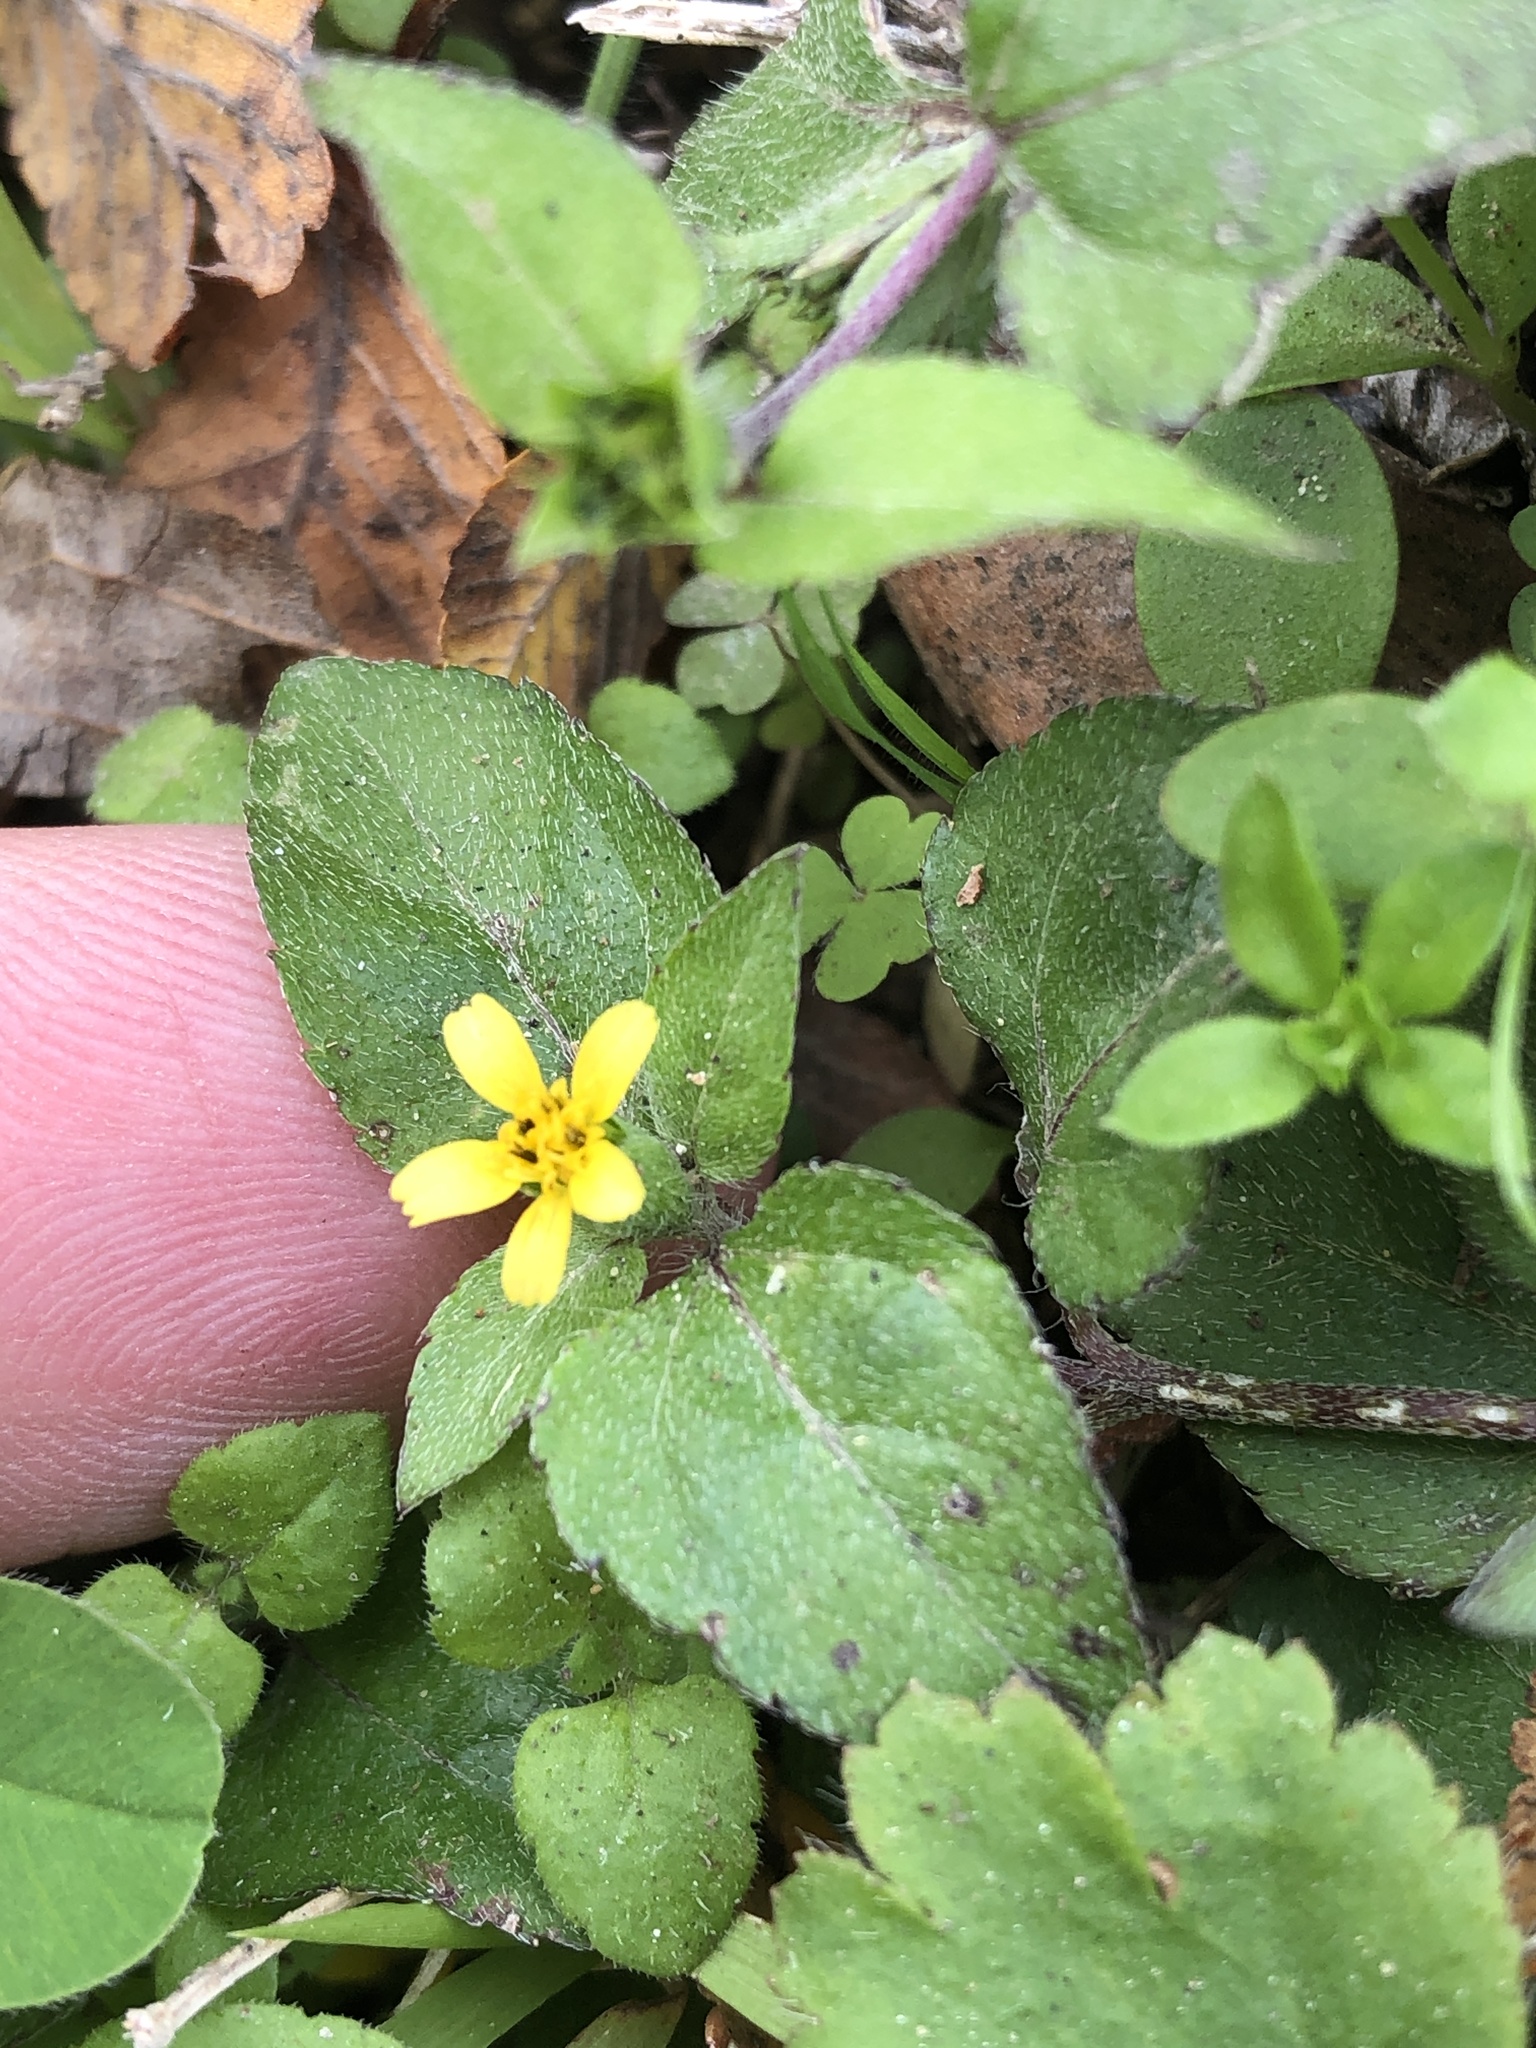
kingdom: Plantae
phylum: Tracheophyta
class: Magnoliopsida
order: Asterales
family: Asteraceae
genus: Calyptocarpus
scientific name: Calyptocarpus vialis
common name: Straggler daisy
